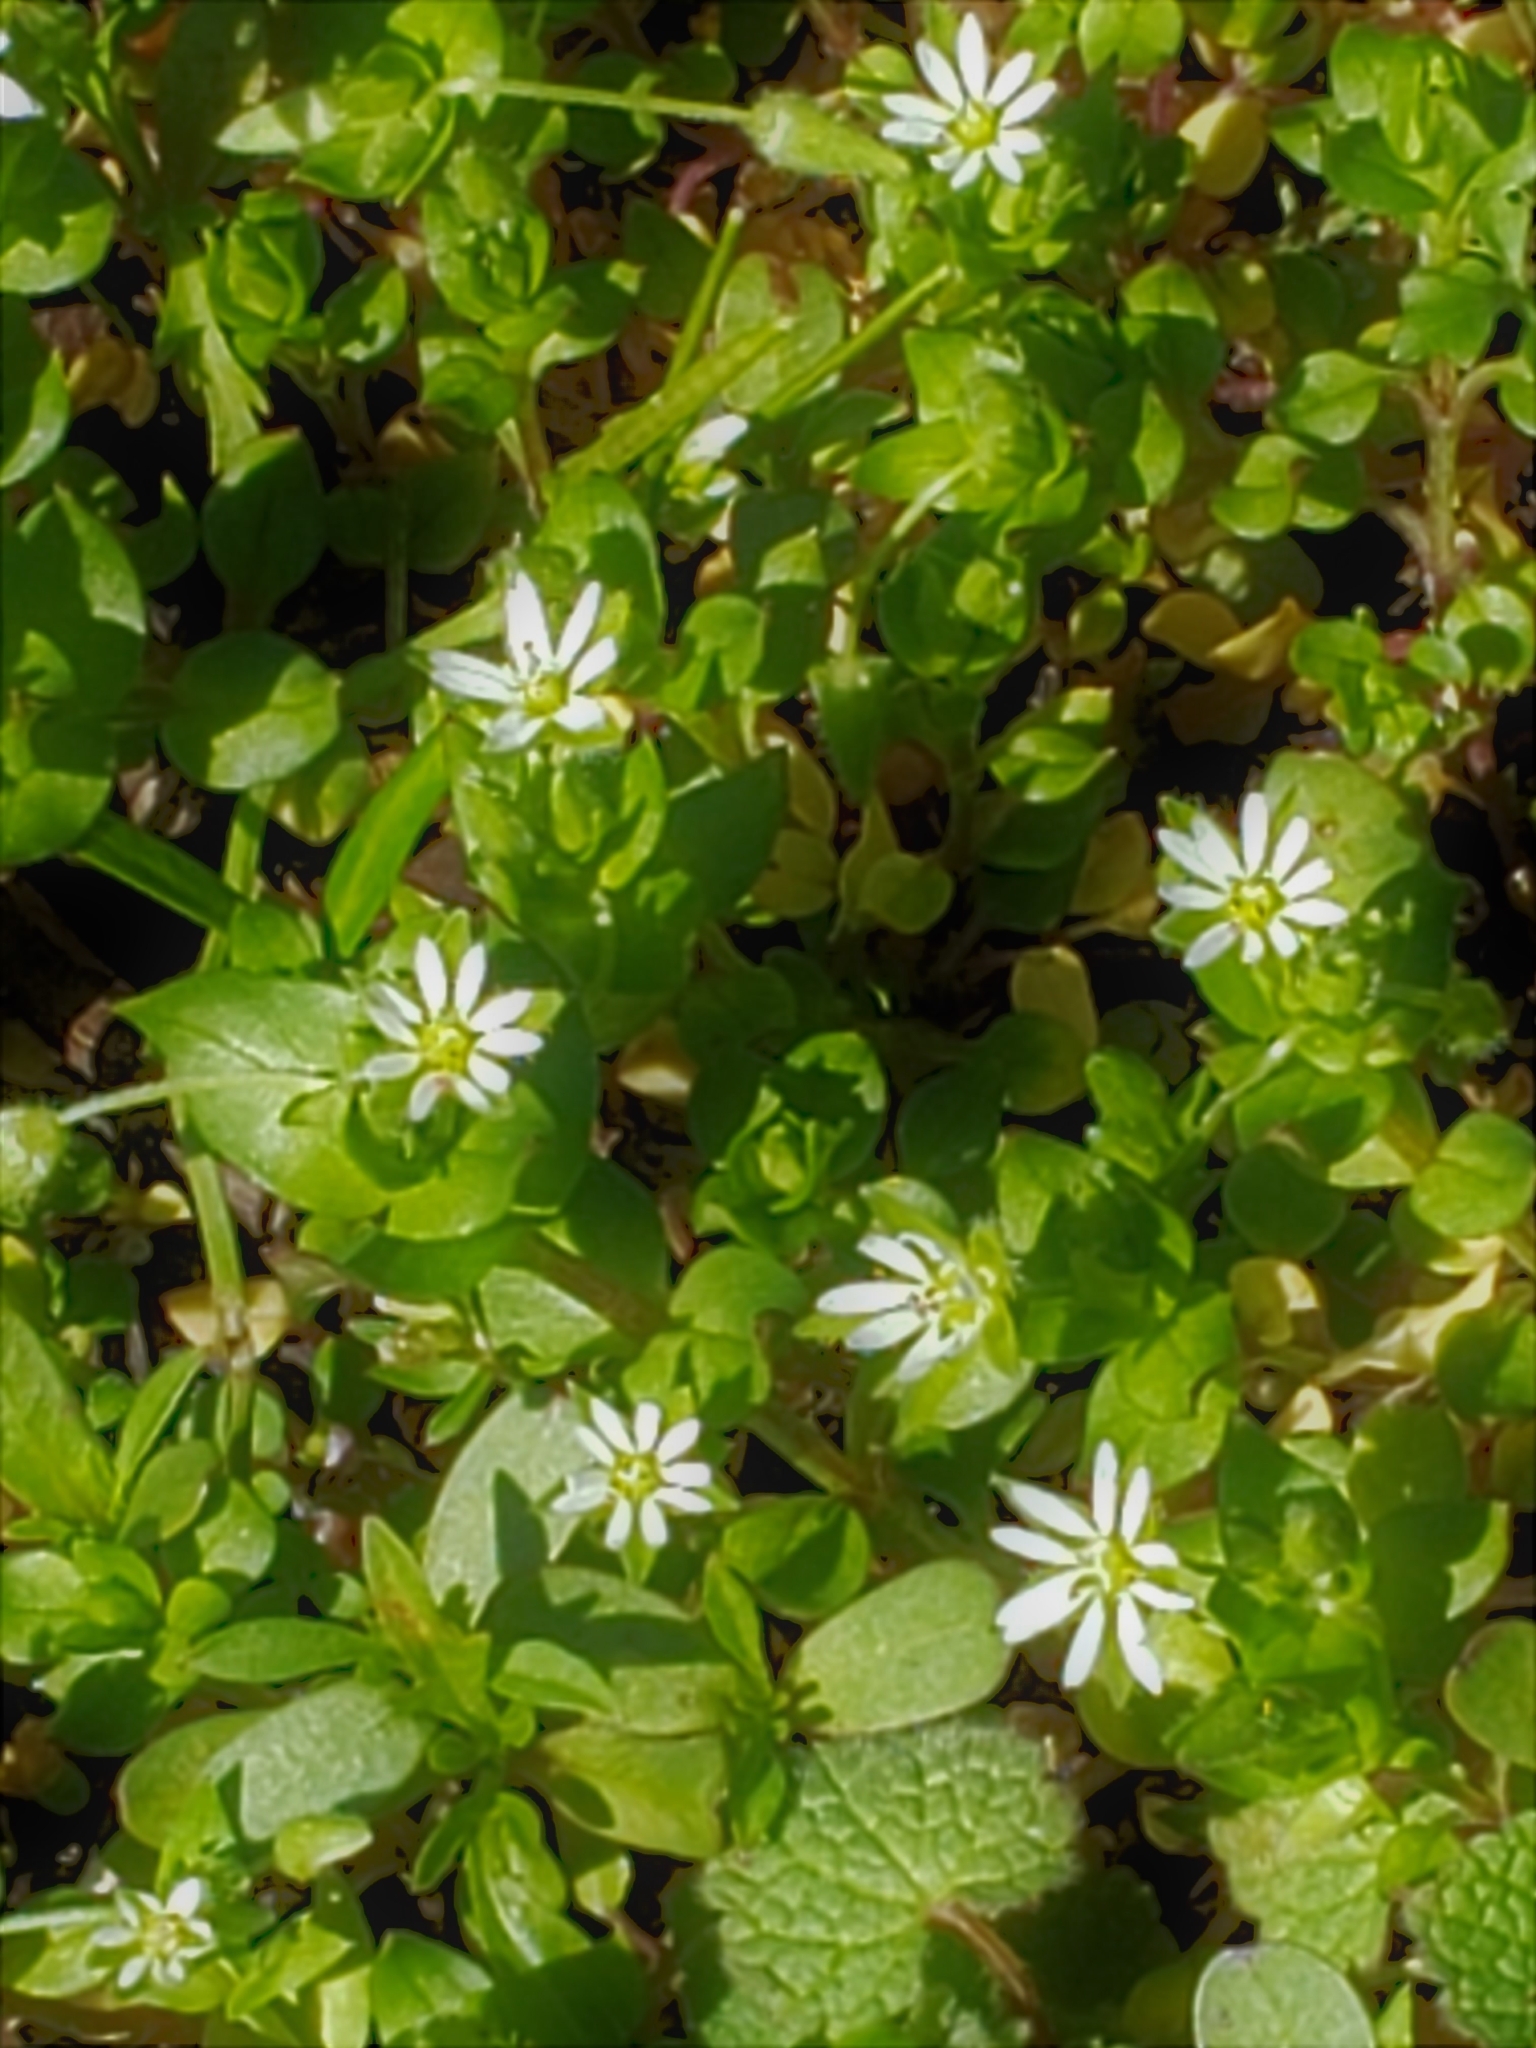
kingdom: Plantae
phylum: Tracheophyta
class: Magnoliopsida
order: Caryophyllales
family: Caryophyllaceae
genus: Stellaria
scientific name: Stellaria media
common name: Common chickweed
